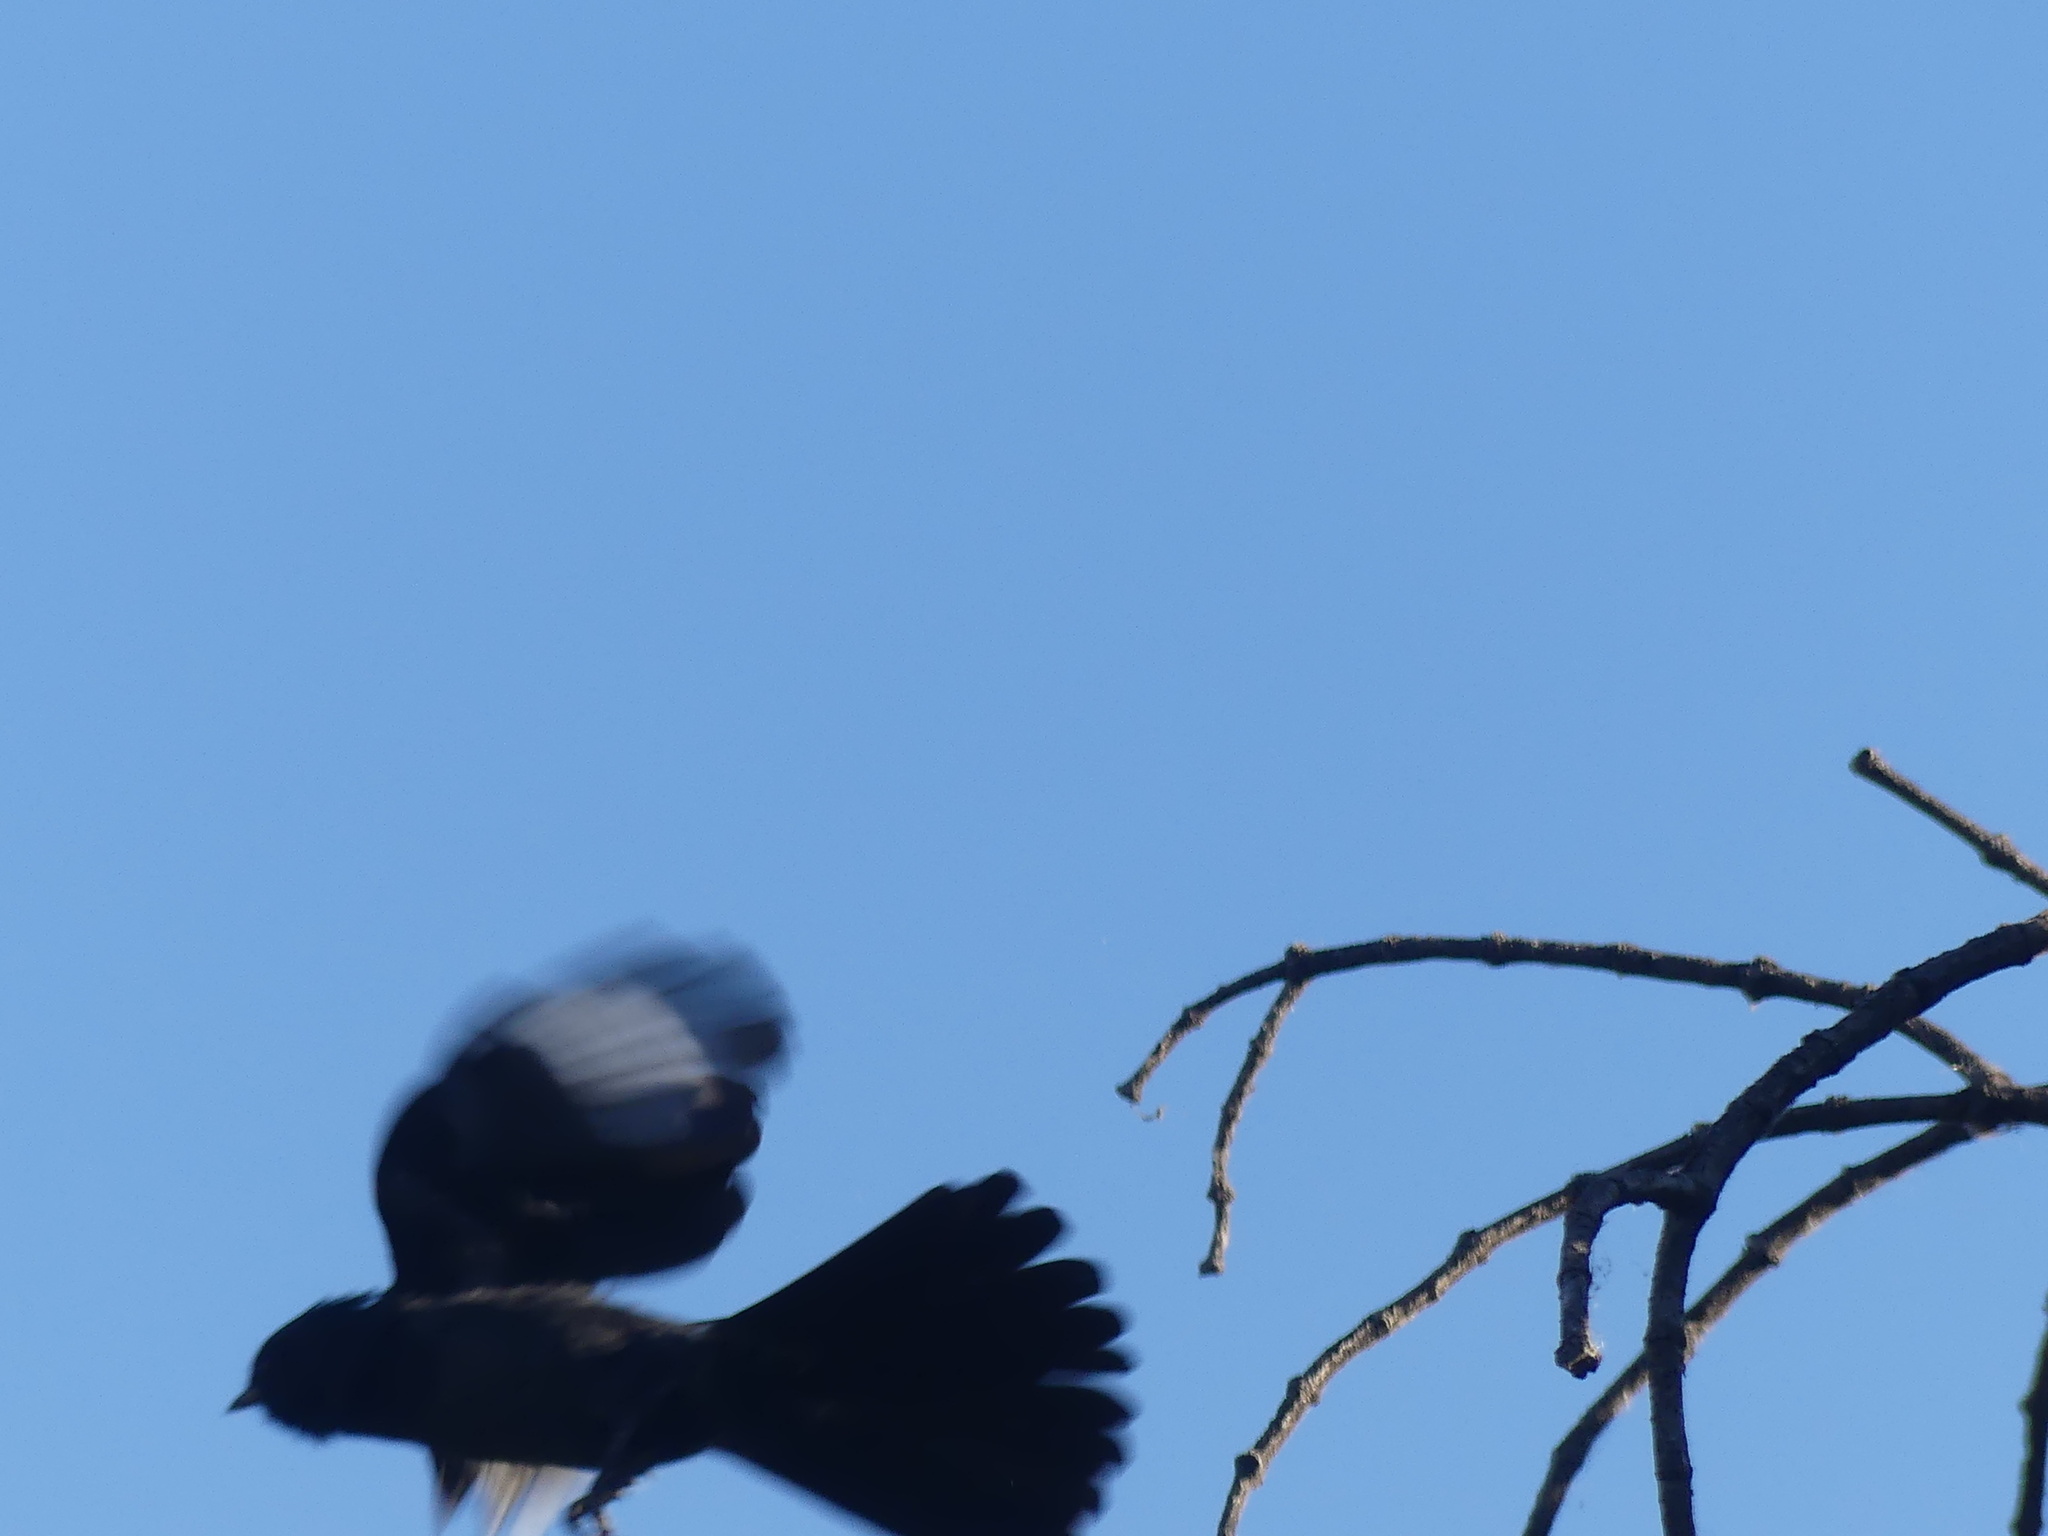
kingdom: Animalia
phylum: Chordata
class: Aves
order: Passeriformes
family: Ptilogonatidae
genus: Phainopepla
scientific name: Phainopepla nitens
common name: Phainopepla
